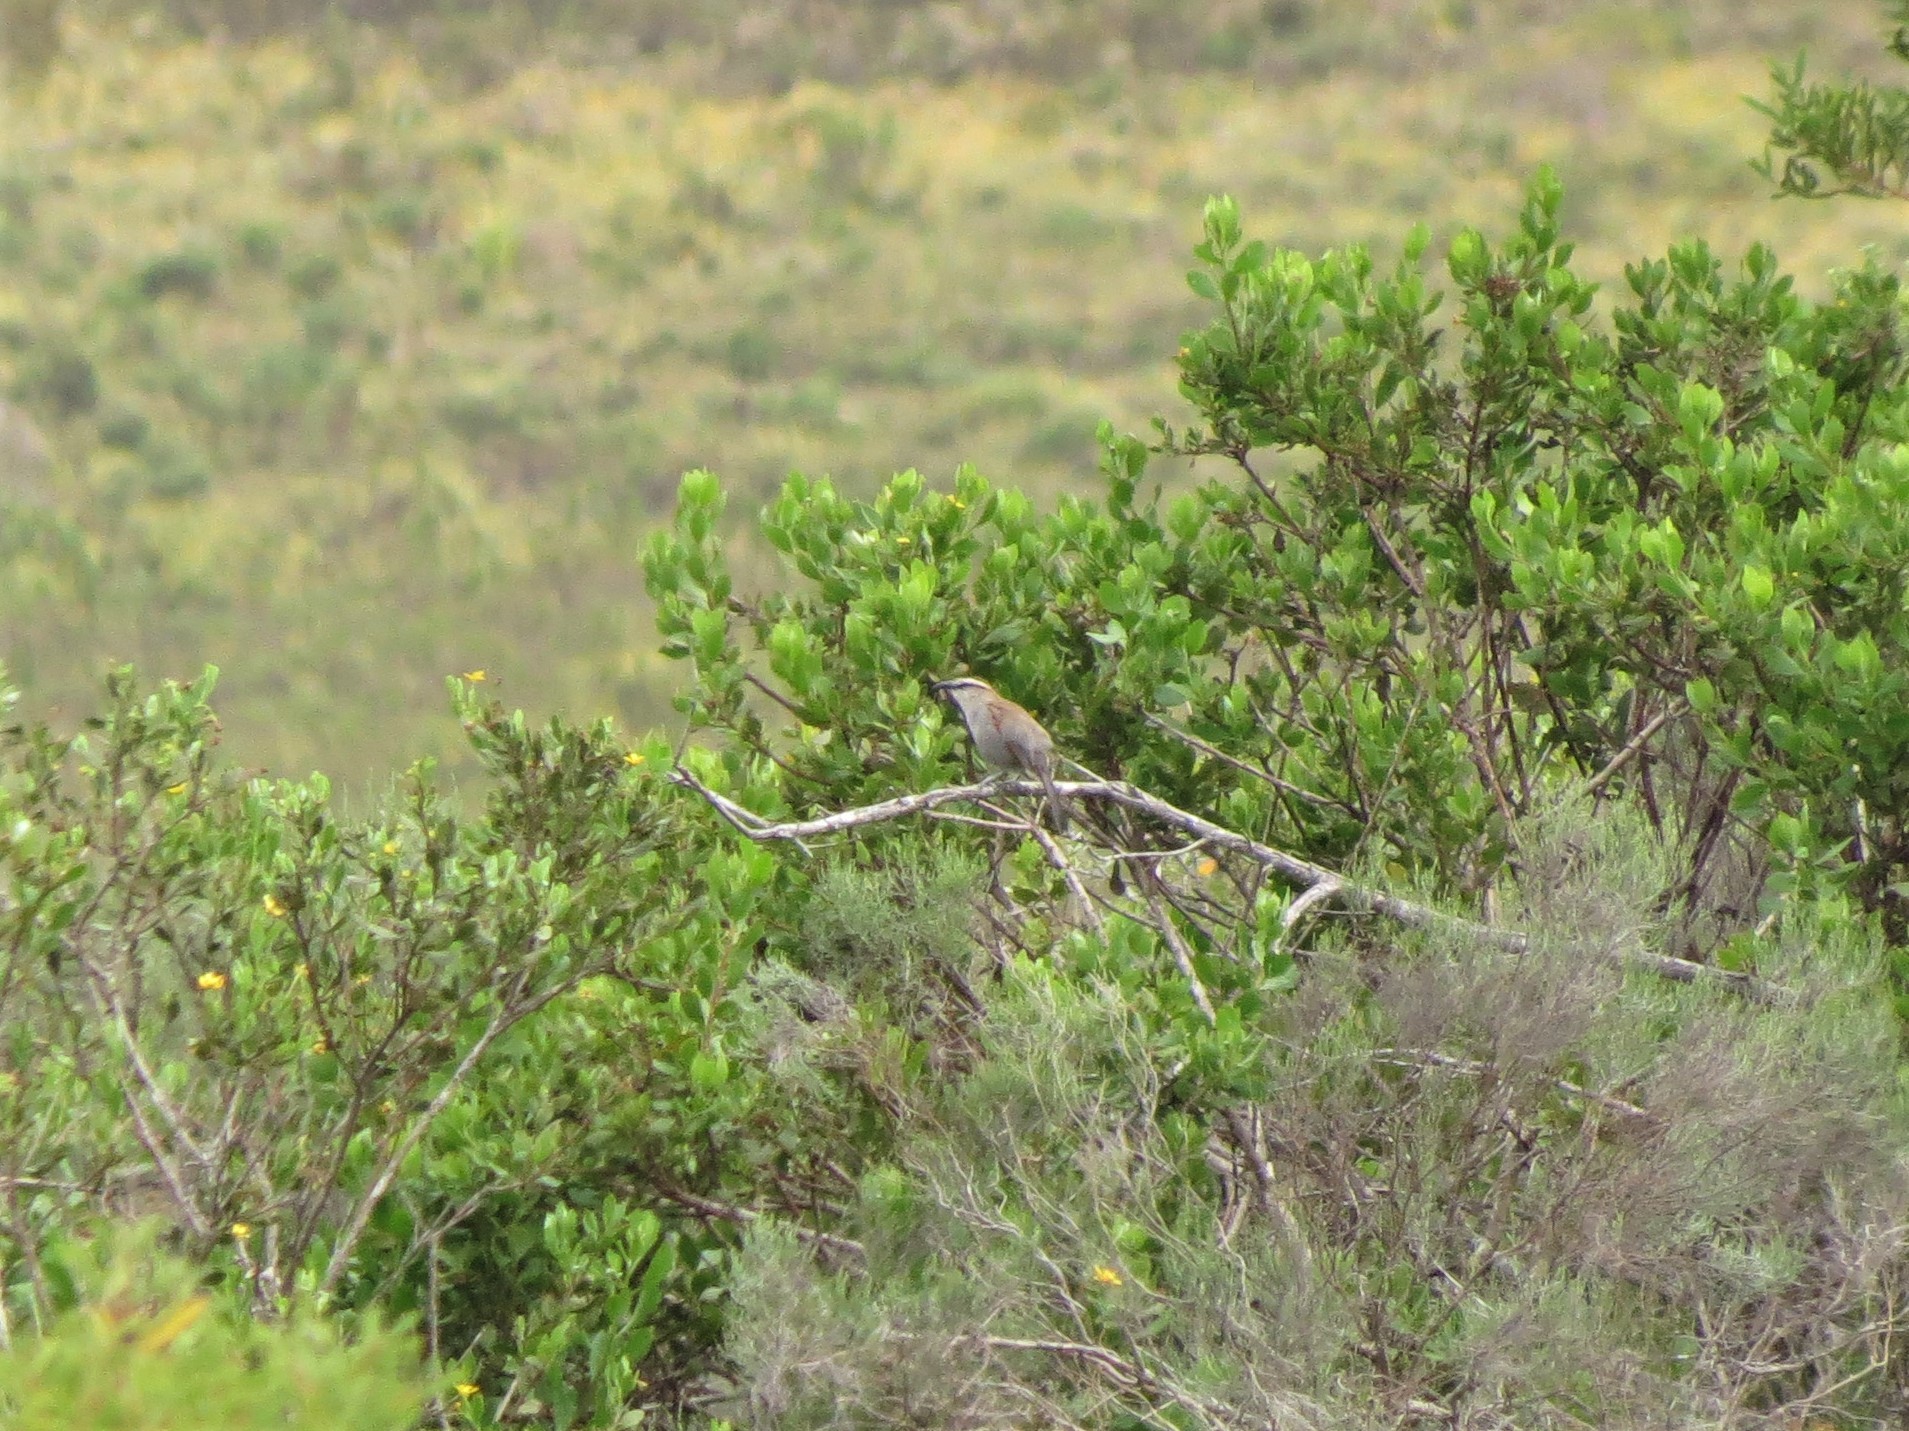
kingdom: Animalia
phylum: Chordata
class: Aves
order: Passeriformes
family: Malaconotidae
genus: Tchagra
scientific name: Tchagra tchagra
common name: Southern tchagra
